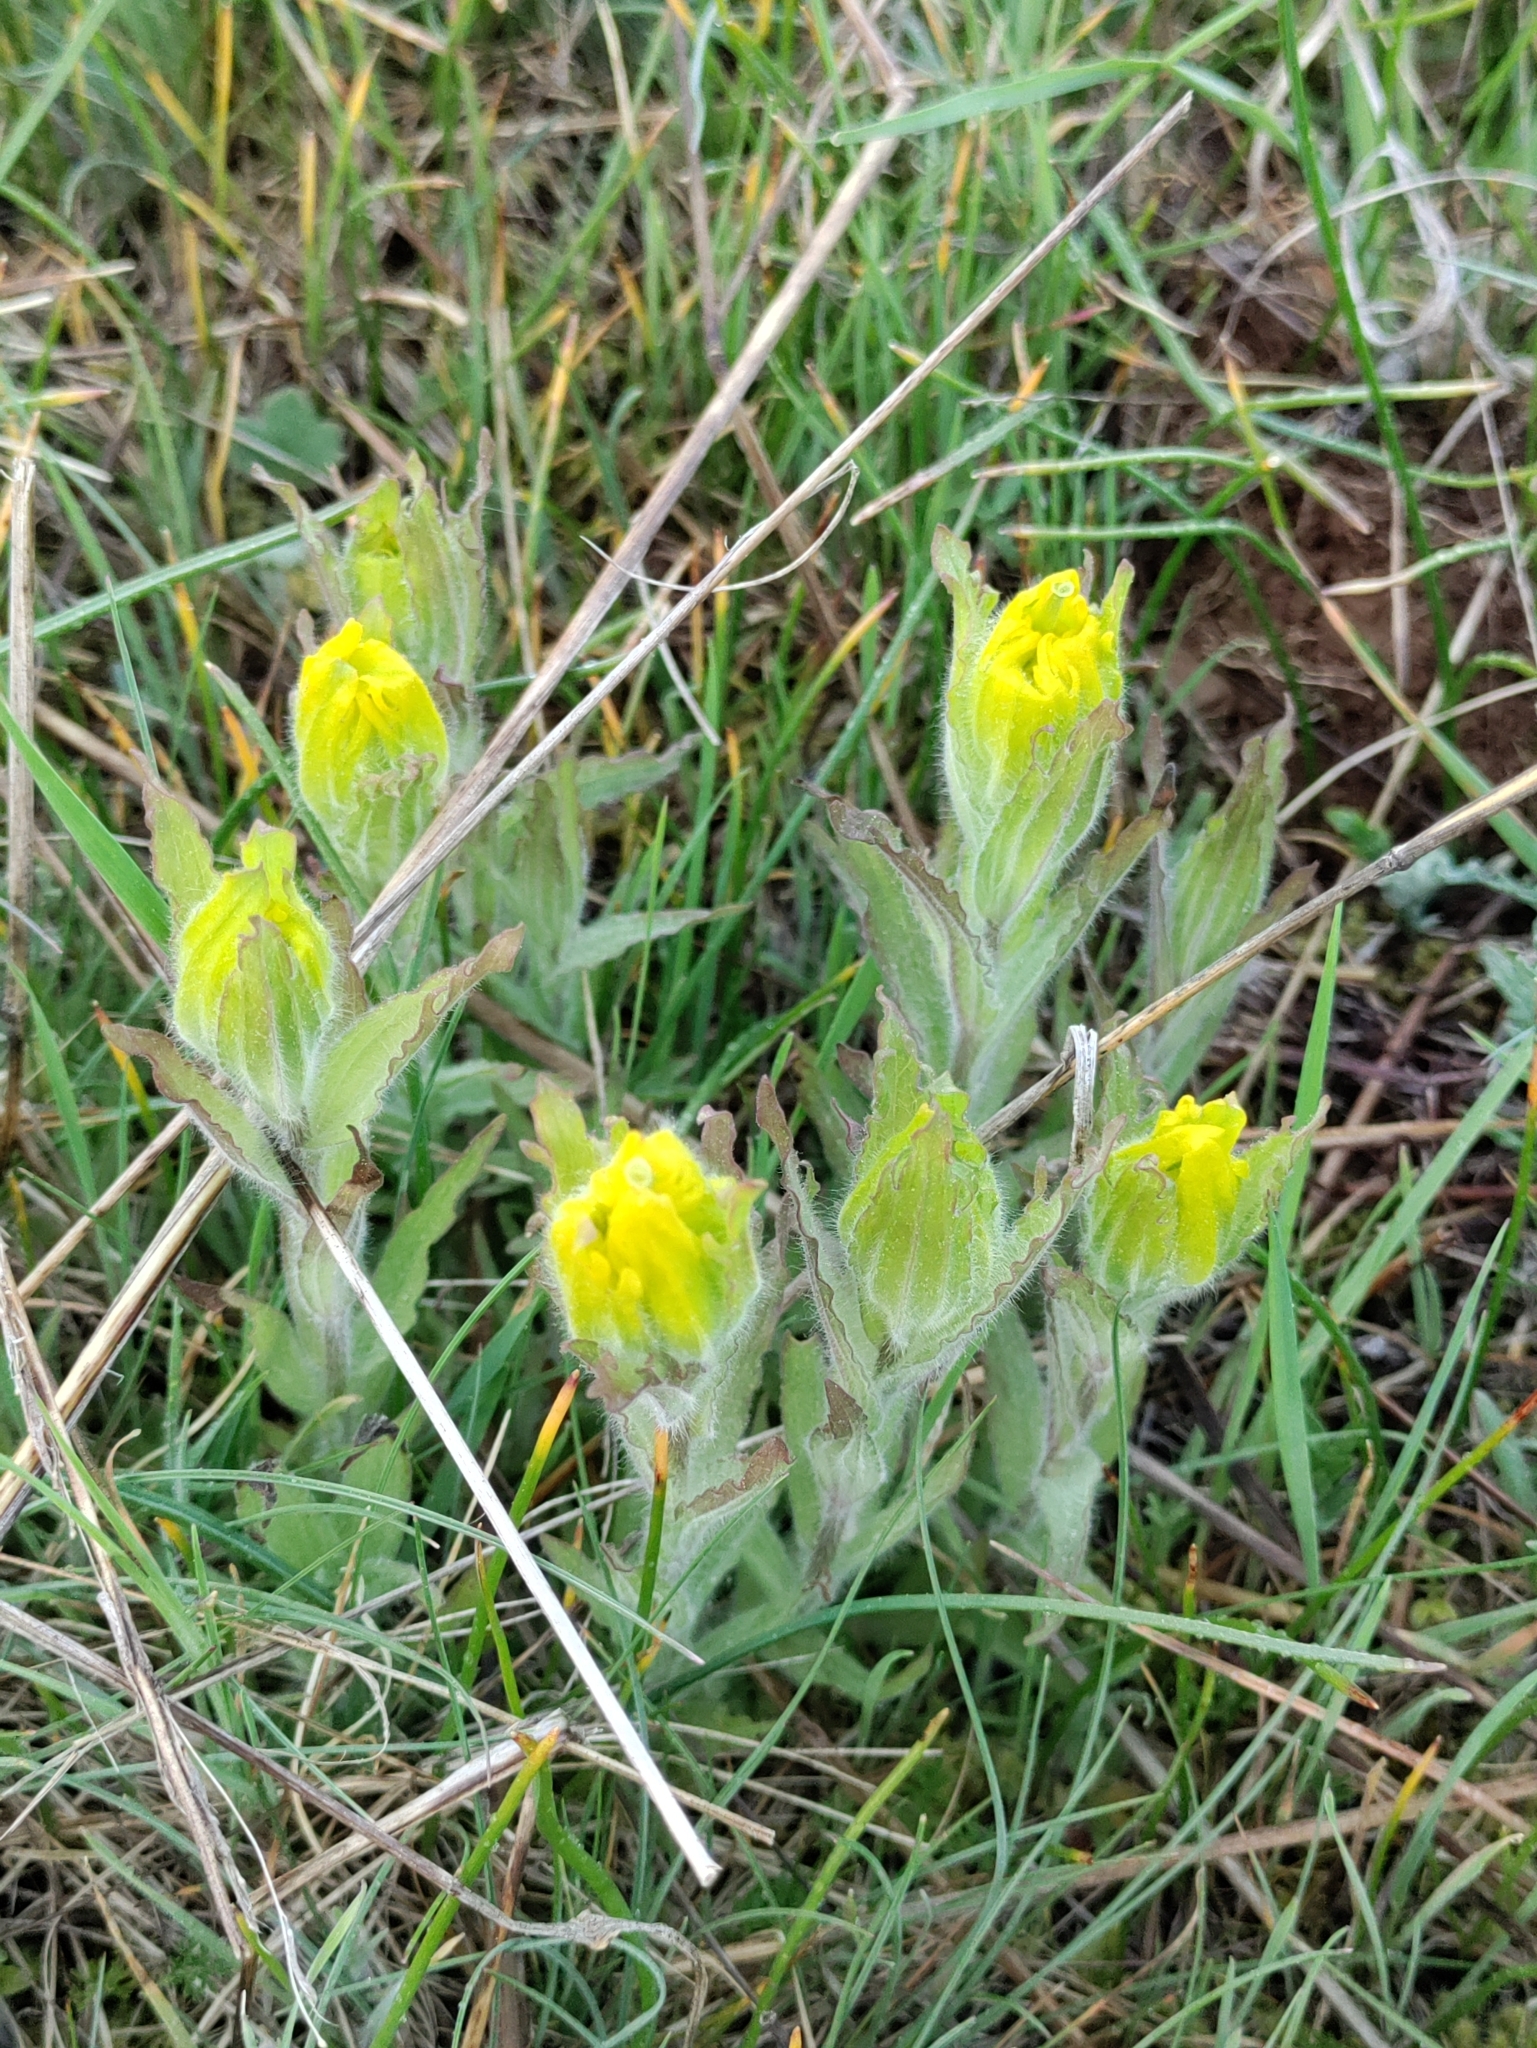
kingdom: Plantae
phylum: Tracheophyta
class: Magnoliopsida
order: Lamiales
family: Orobanchaceae
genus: Castilleja
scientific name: Castilleja levisecta
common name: Golden paintbrush
